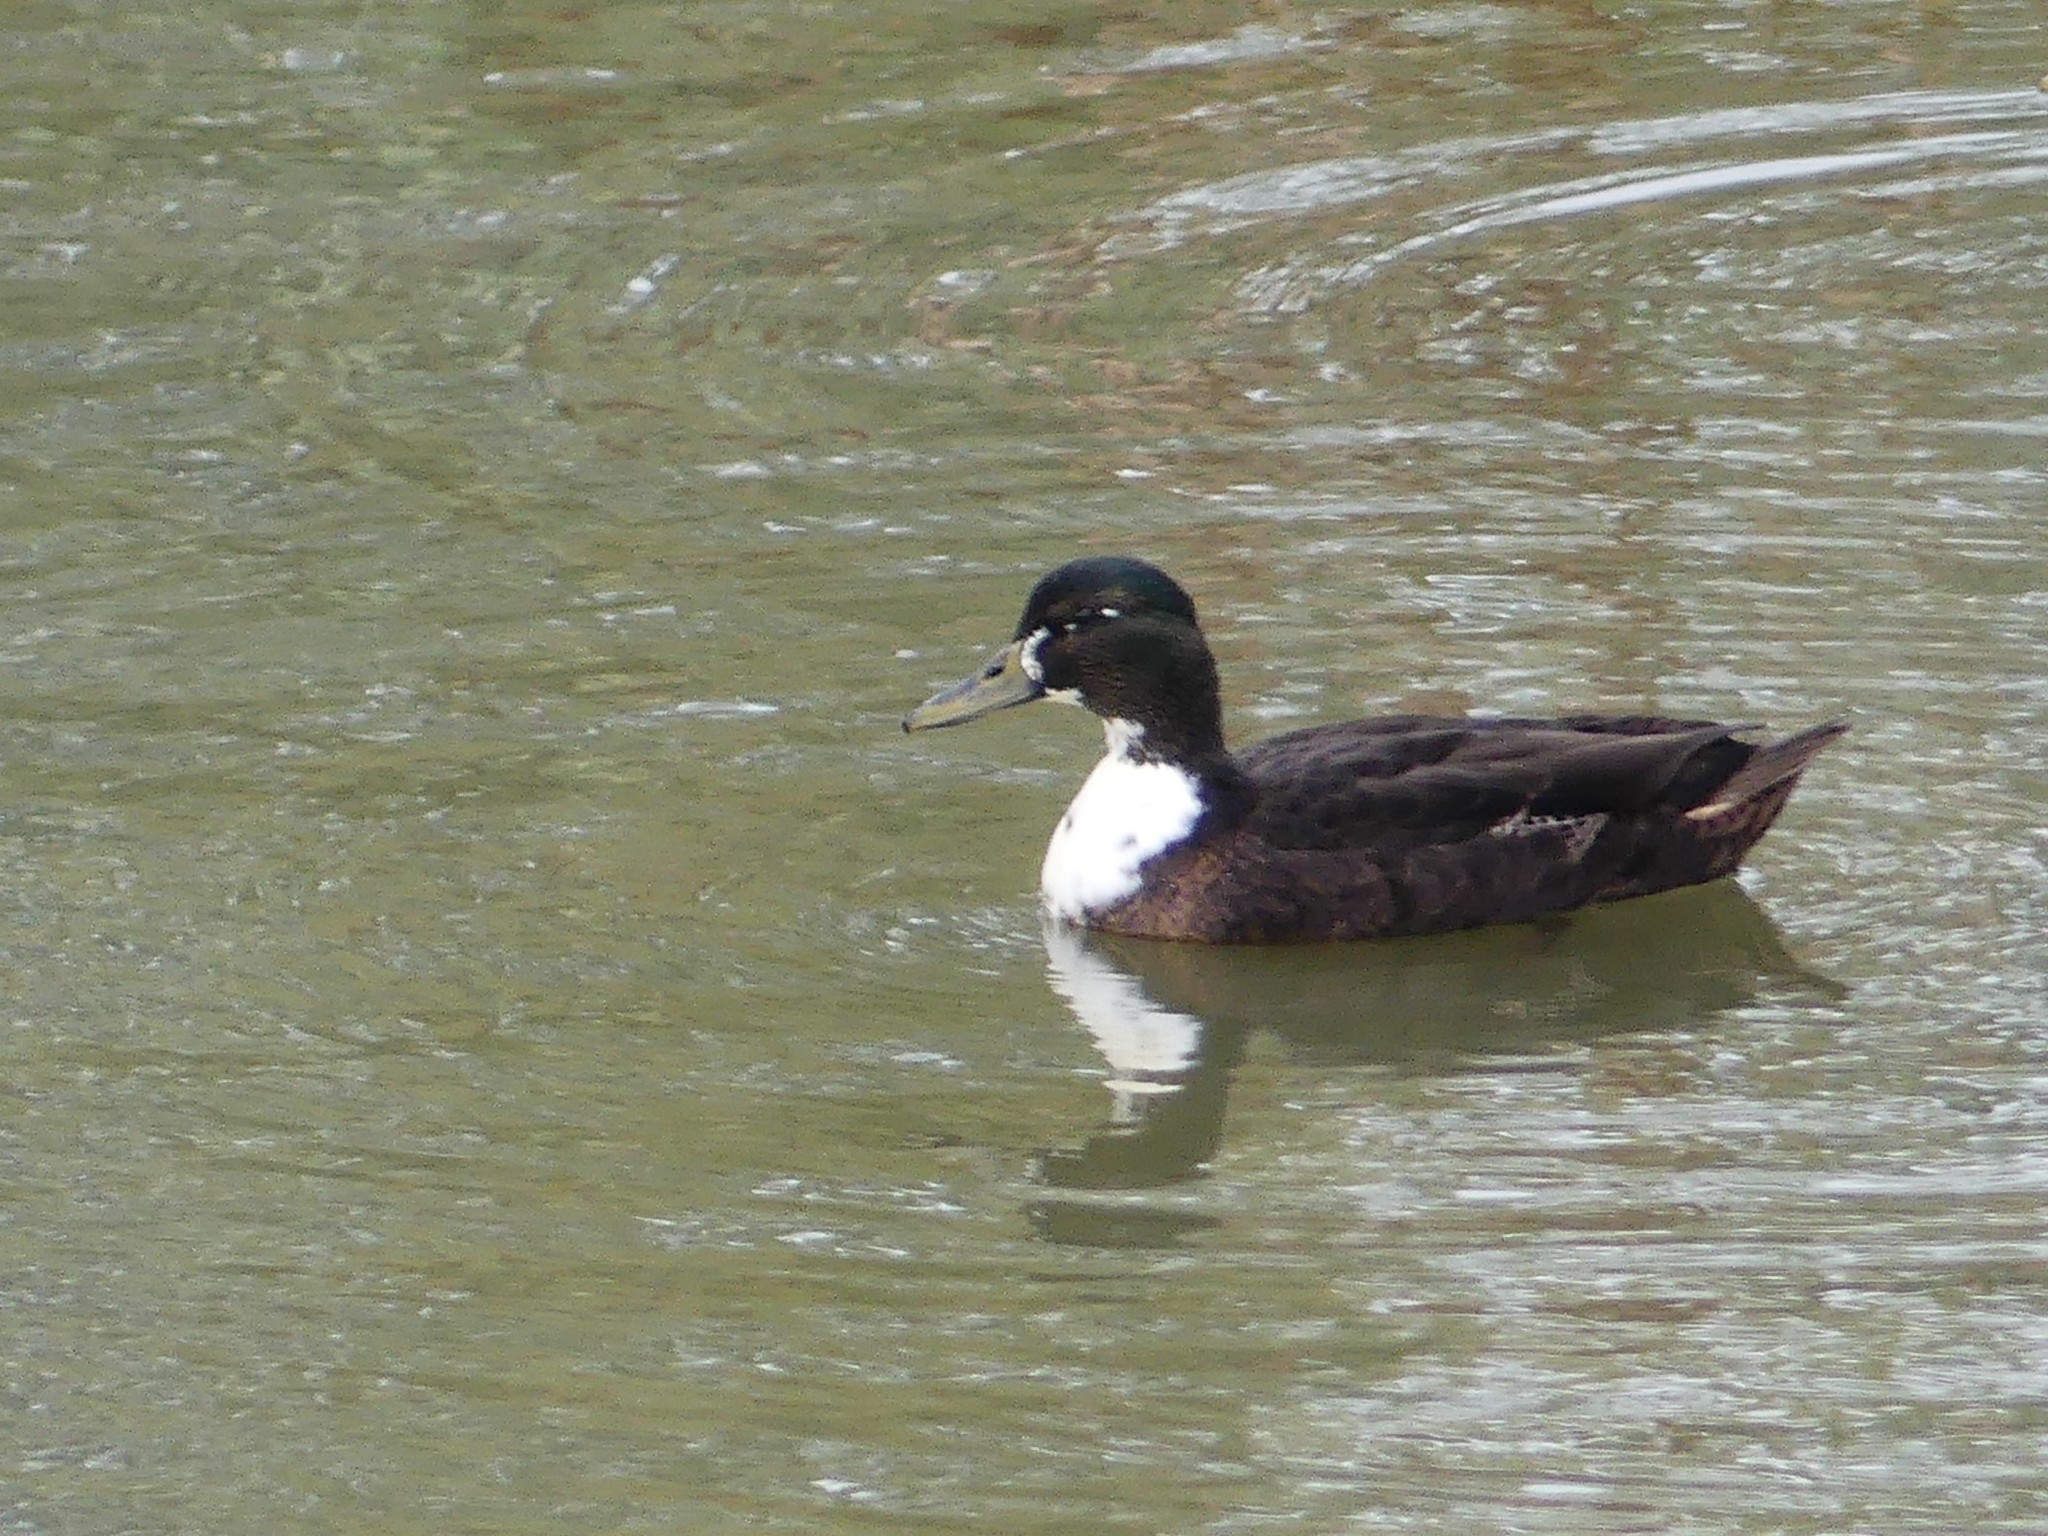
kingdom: Animalia
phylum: Chordata
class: Aves
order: Anseriformes
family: Anatidae
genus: Anas
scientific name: Anas platyrhynchos
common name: Mallard
